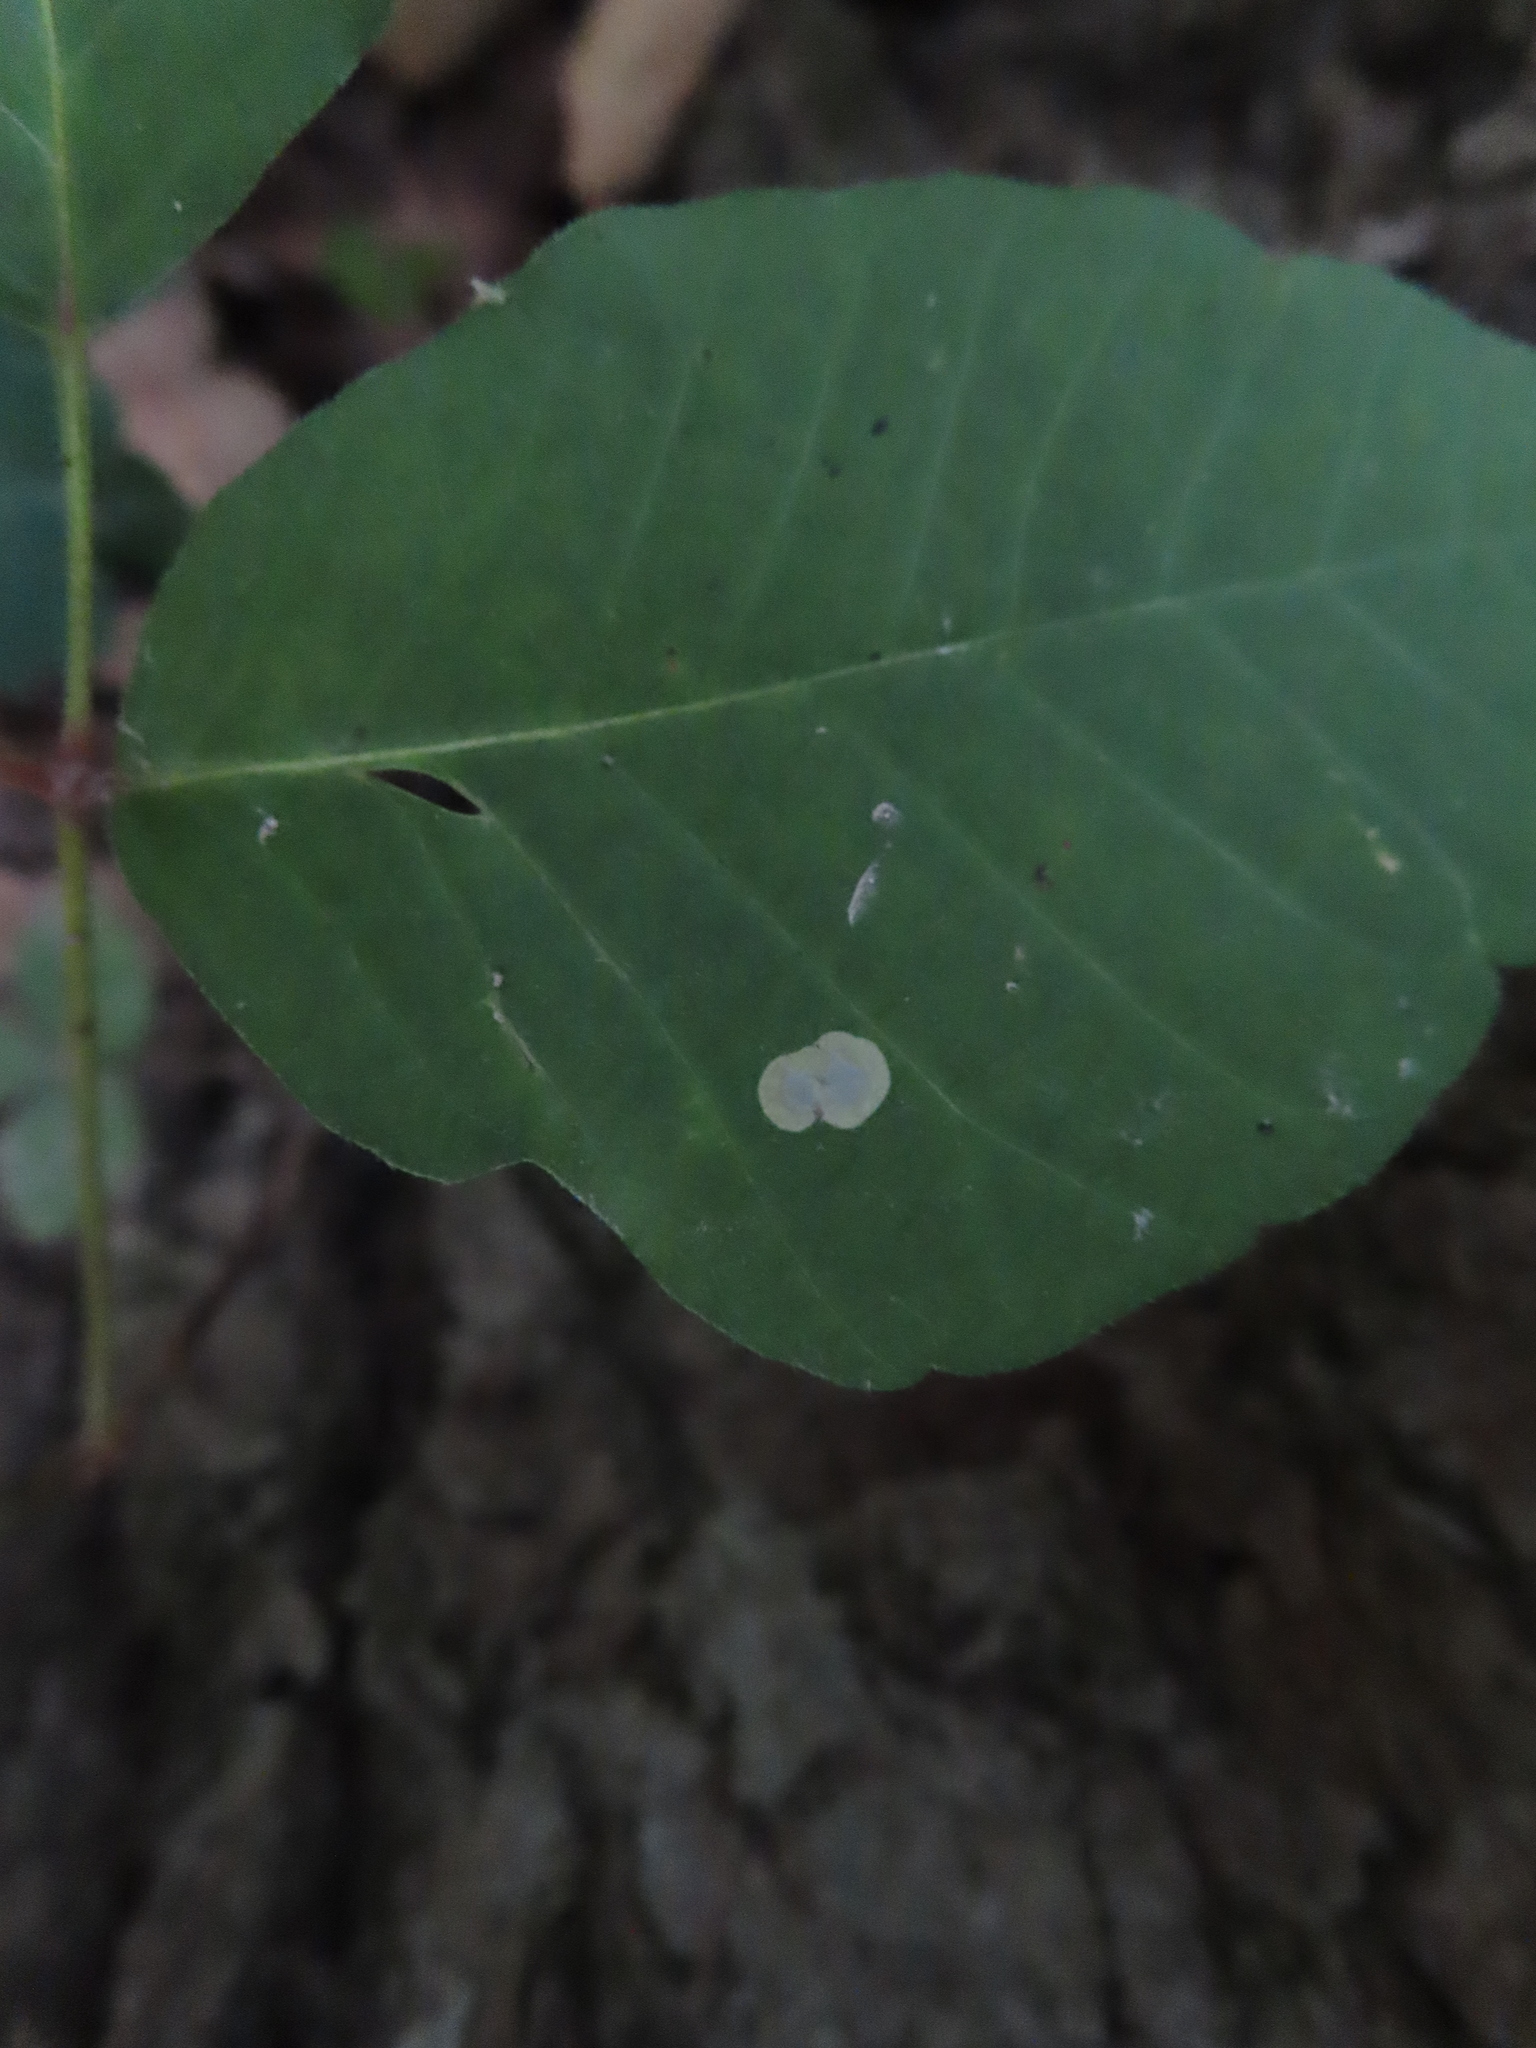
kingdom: Animalia
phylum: Arthropoda
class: Insecta
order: Lepidoptera
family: Gracillariidae
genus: Cameraria
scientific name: Cameraria guttifinitella
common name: Poison ivy leaf-miner moth
